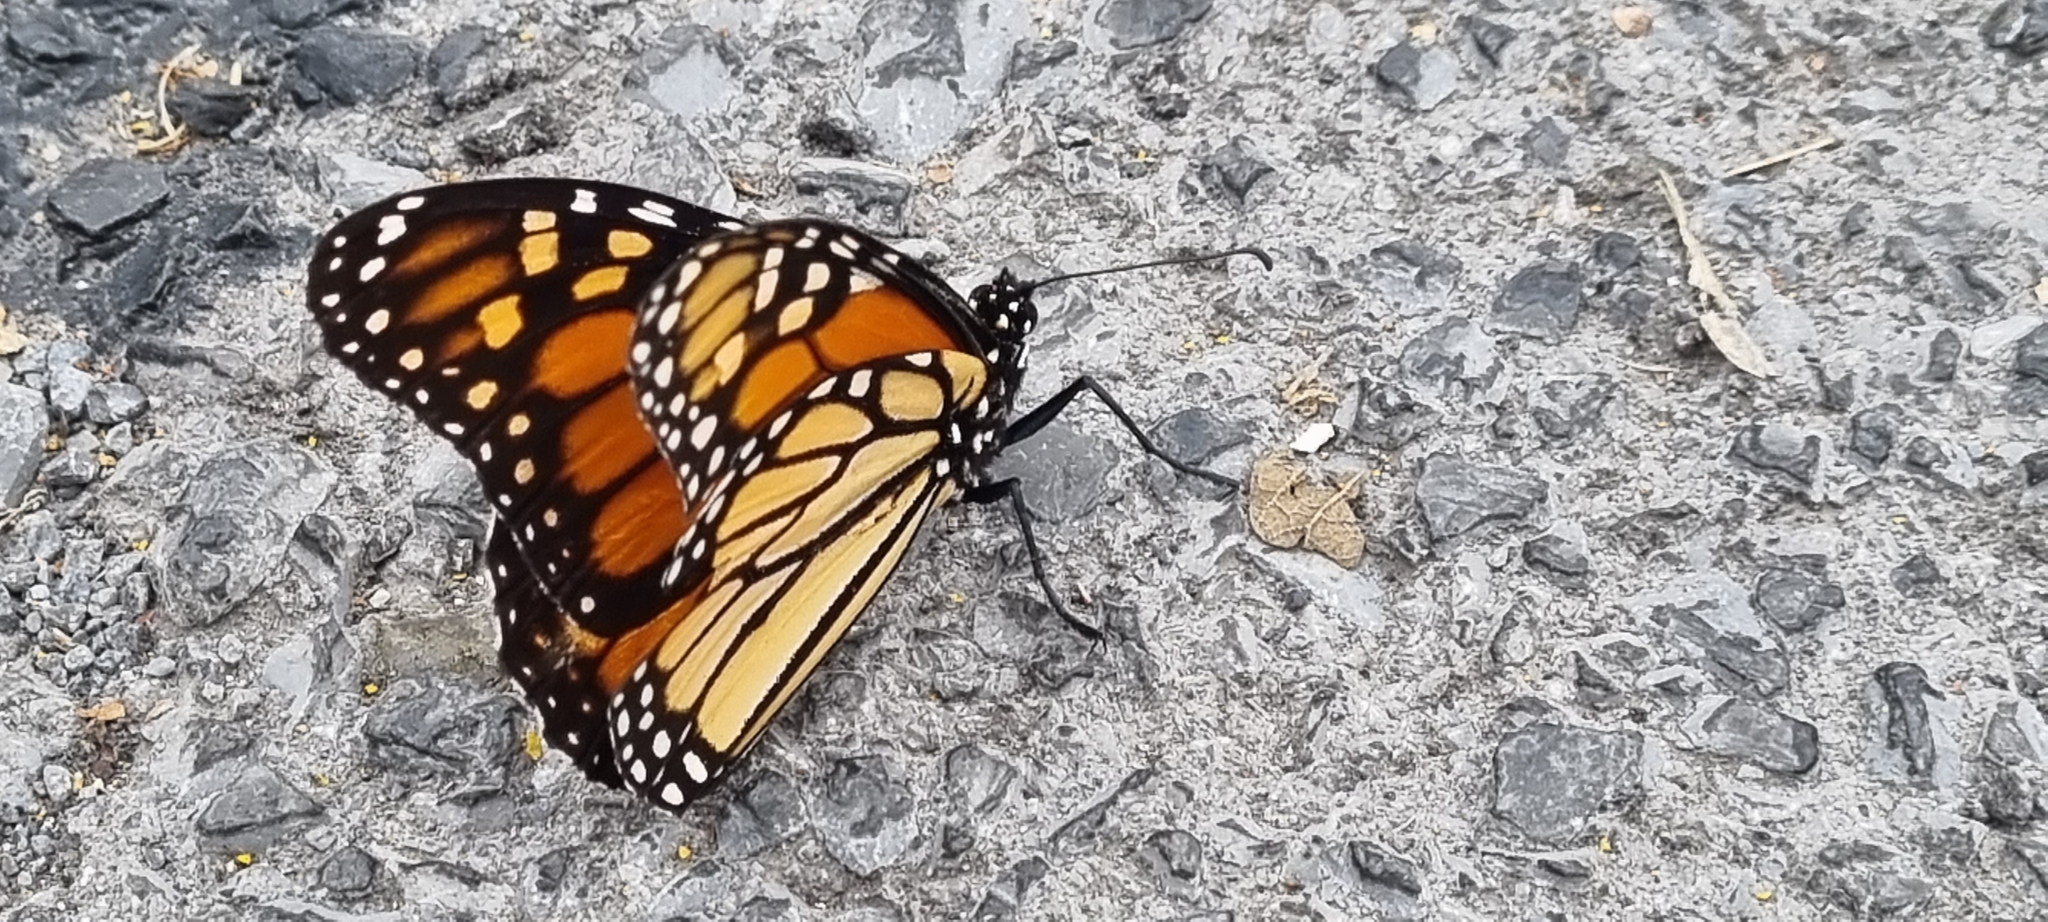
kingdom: Animalia
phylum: Arthropoda
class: Insecta
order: Lepidoptera
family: Nymphalidae
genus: Danaus
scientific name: Danaus plexippus
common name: Monarch
